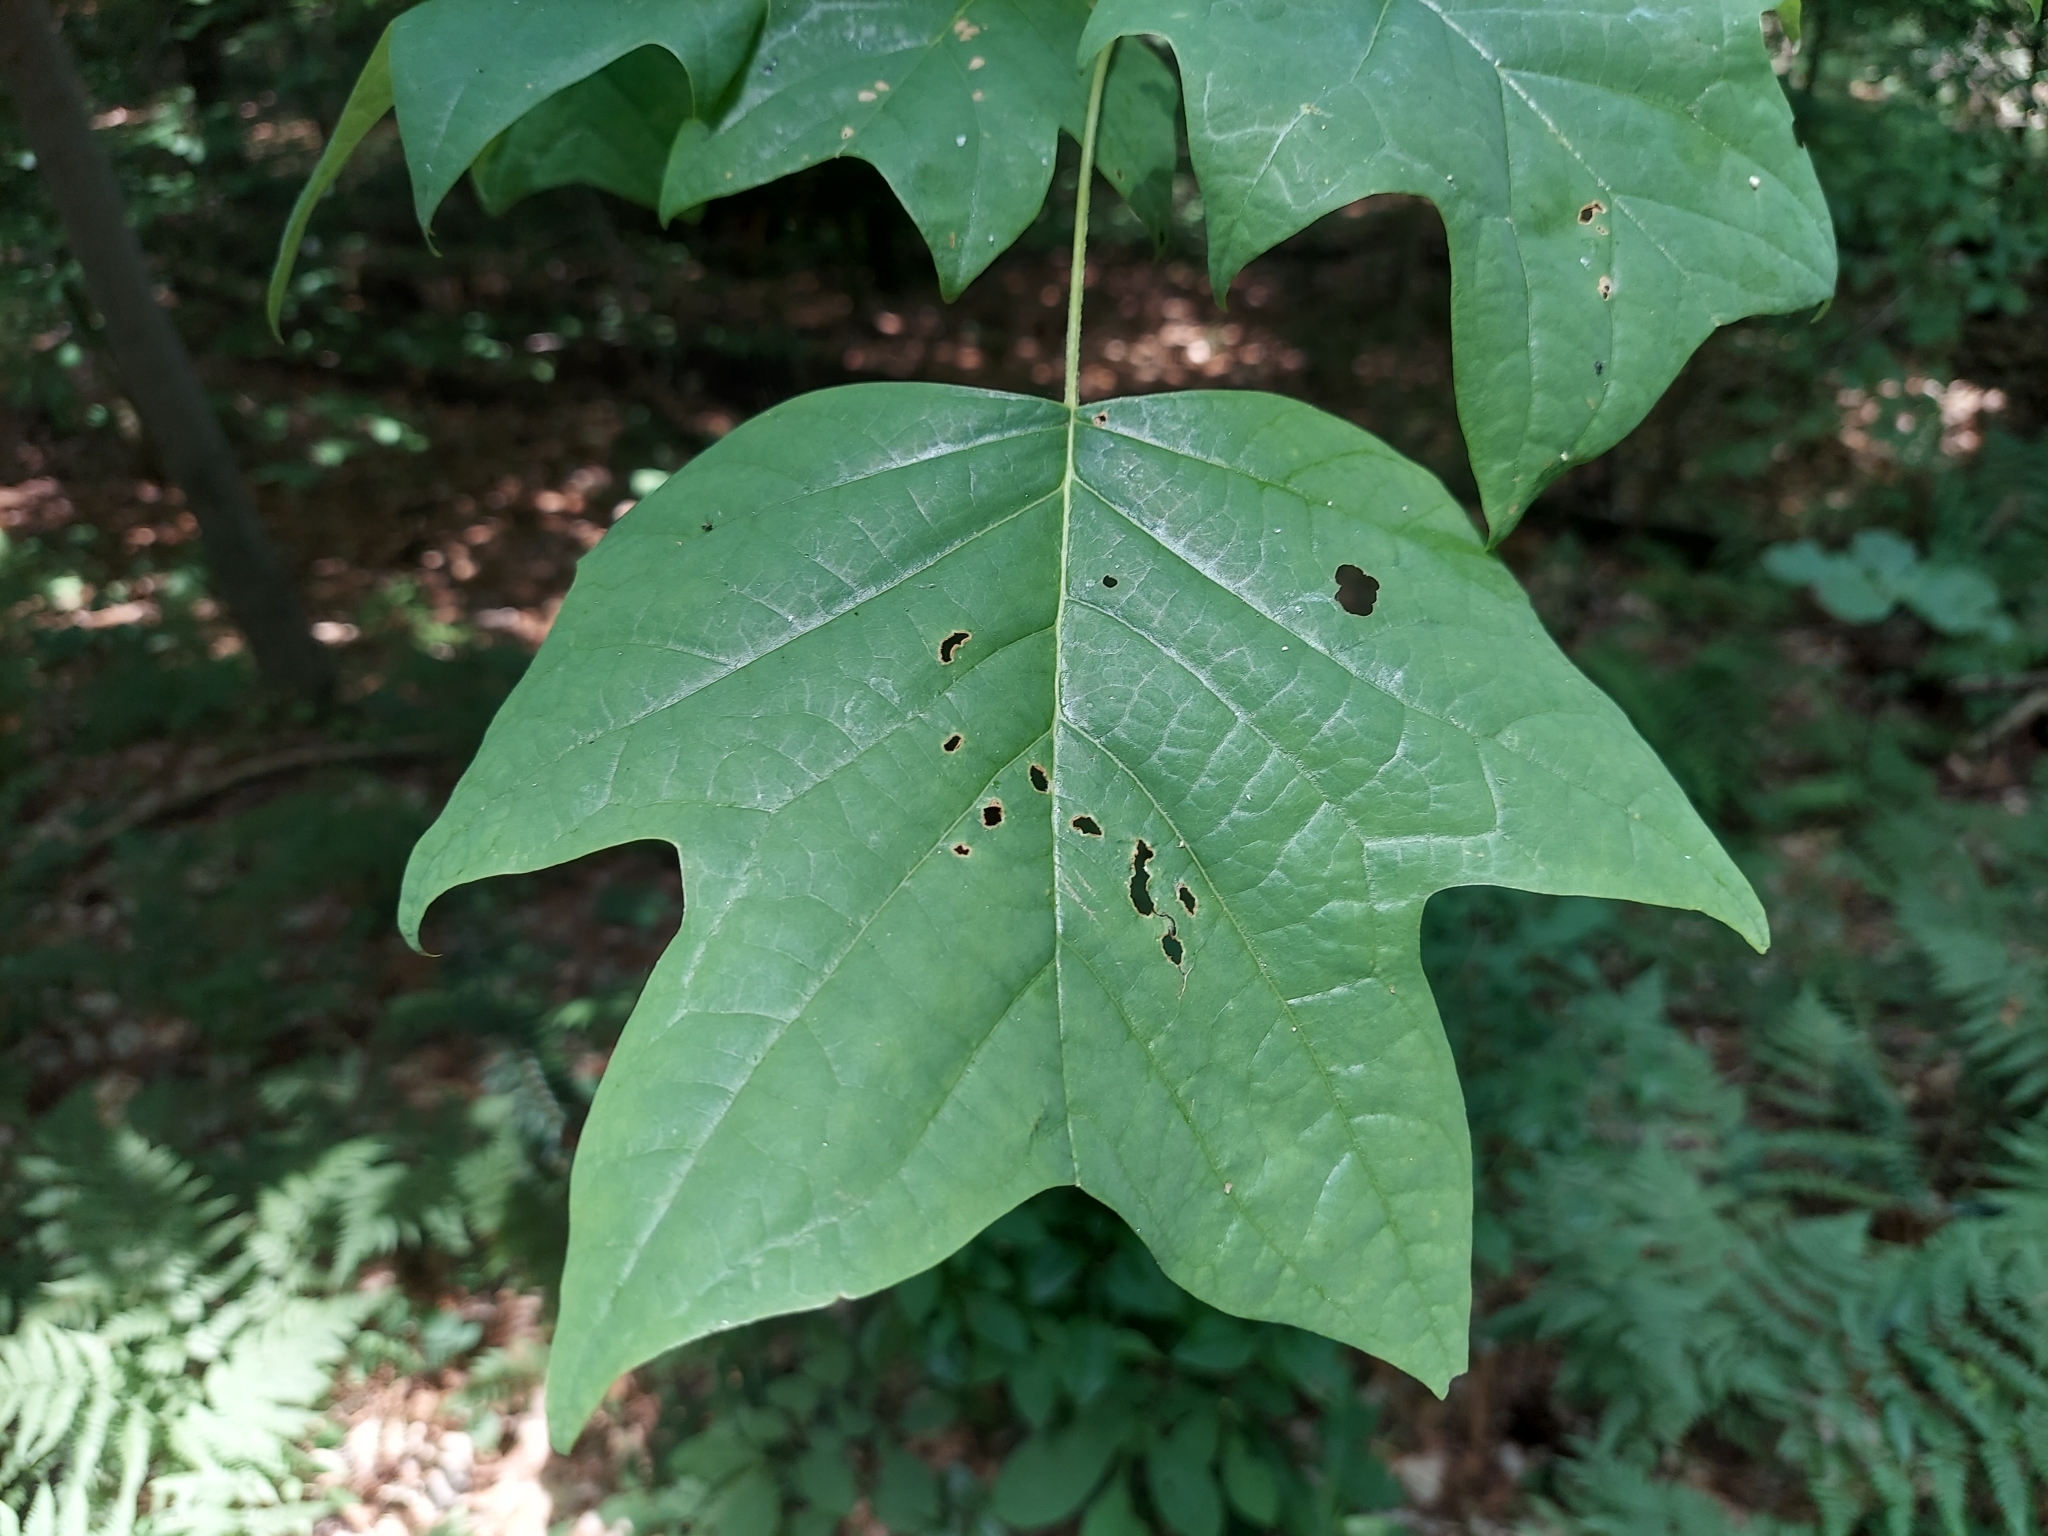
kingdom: Plantae
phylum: Tracheophyta
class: Magnoliopsida
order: Magnoliales
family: Magnoliaceae
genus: Liriodendron
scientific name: Liriodendron tulipifera
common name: Tulip tree
